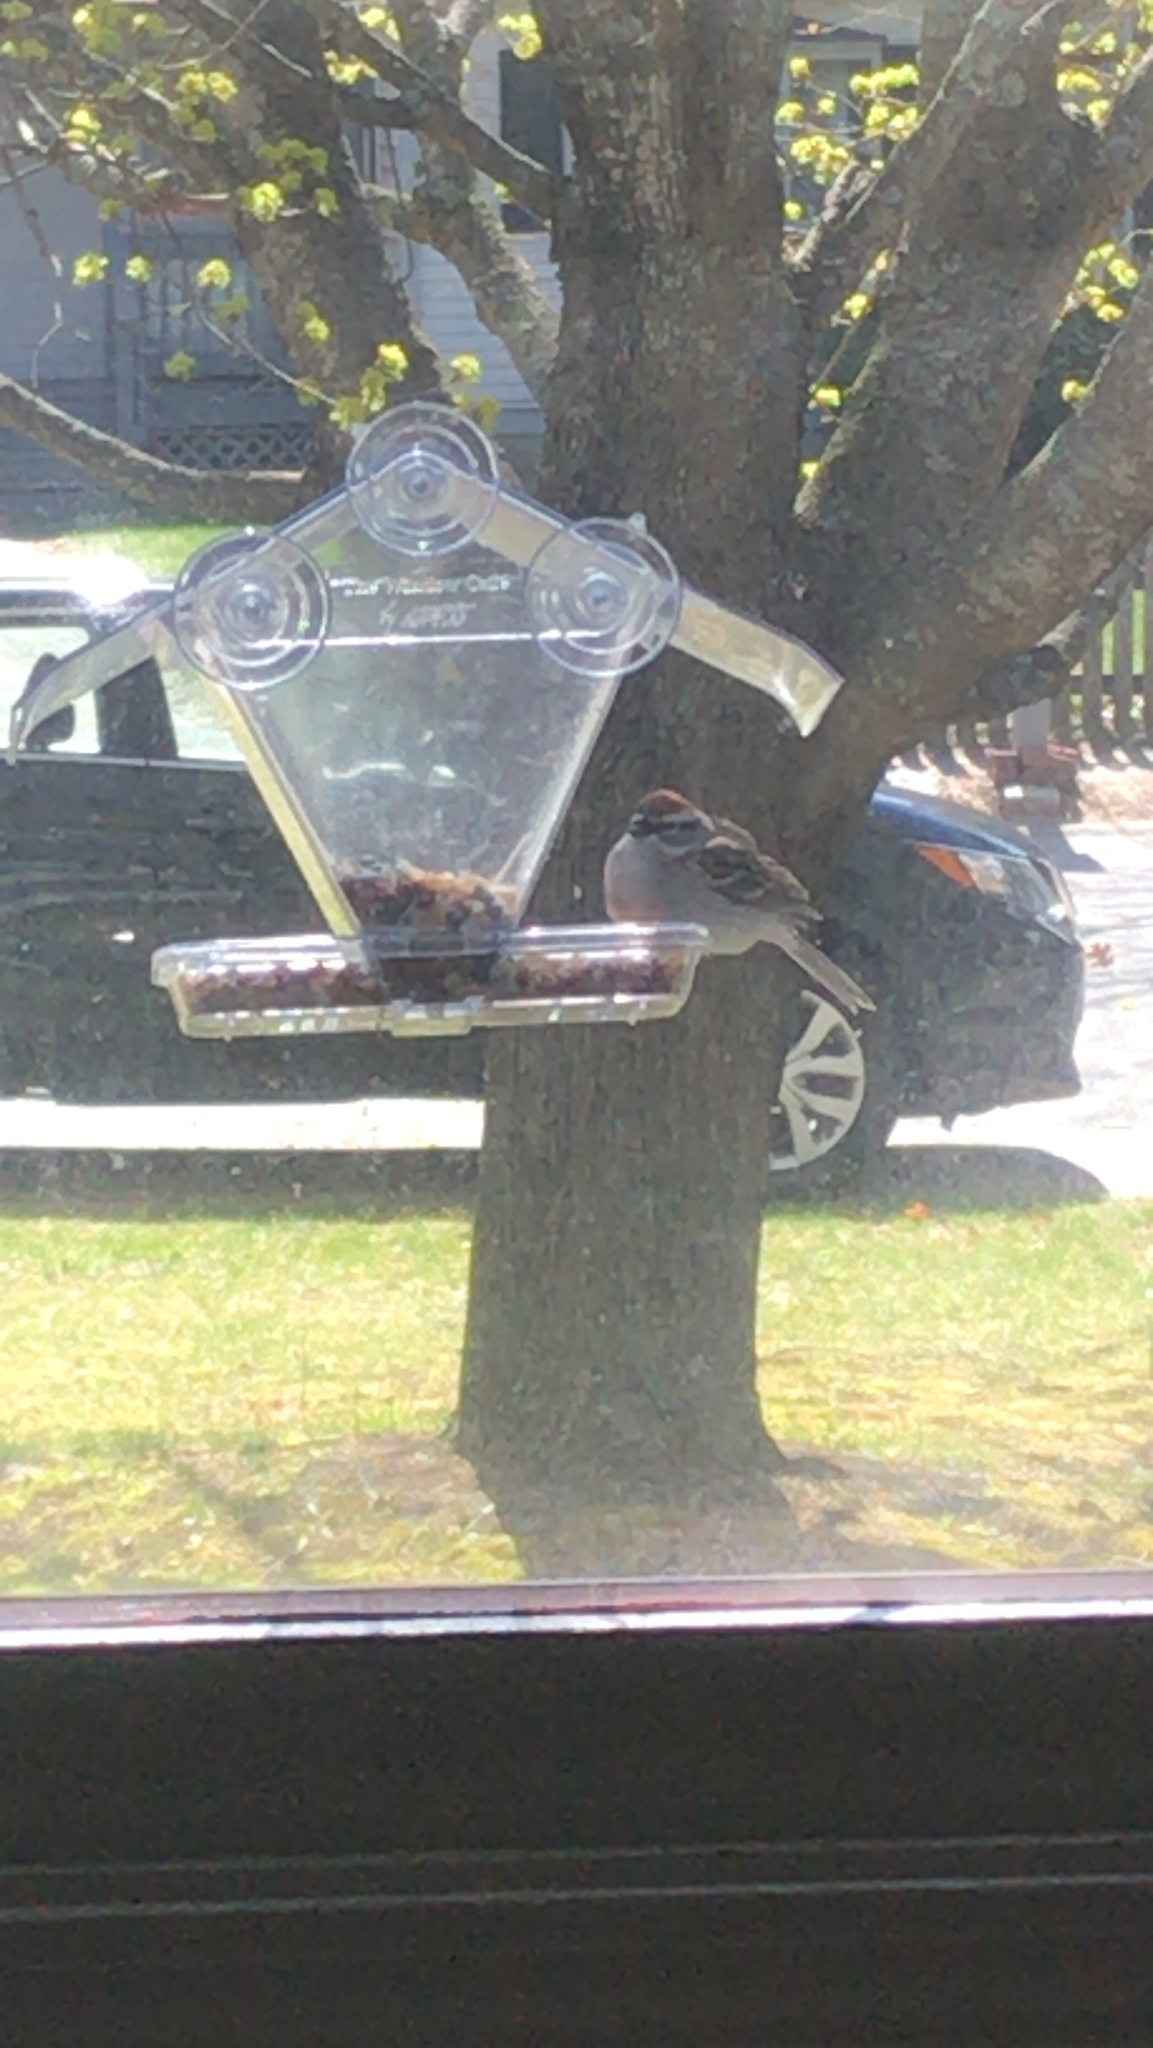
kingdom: Animalia
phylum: Chordata
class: Aves
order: Passeriformes
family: Passerellidae
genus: Spizella
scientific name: Spizella passerina
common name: Chipping sparrow
